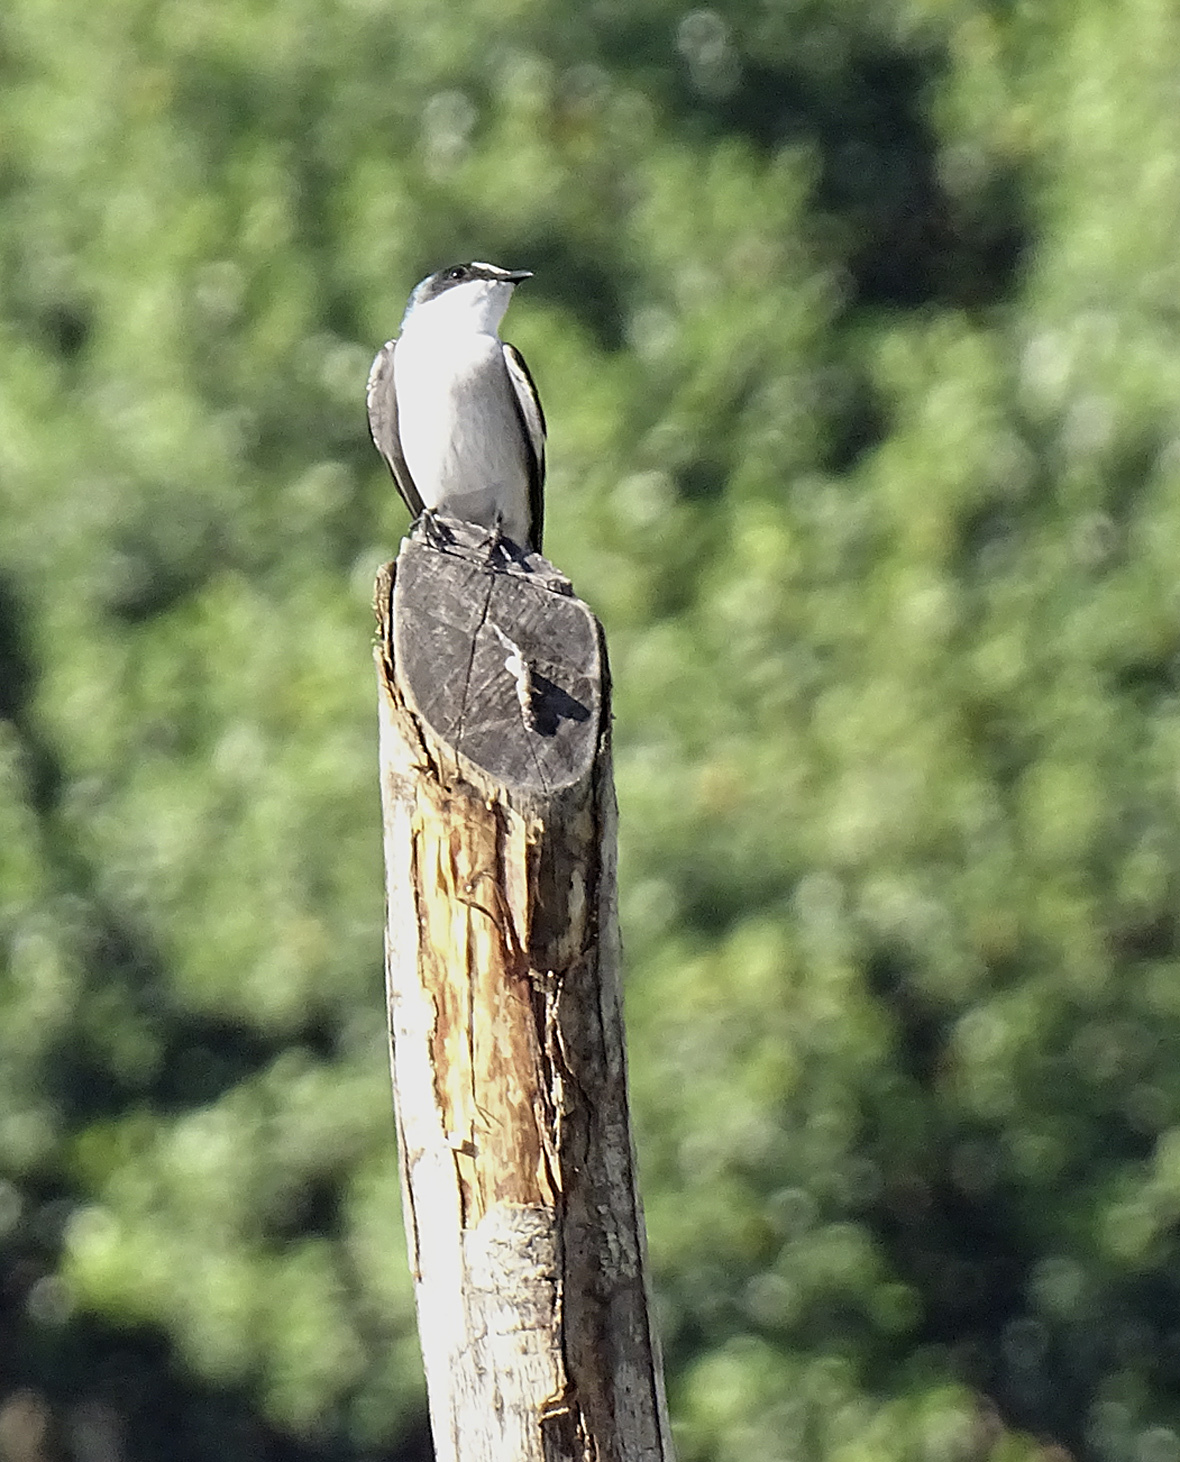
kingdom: Animalia
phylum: Chordata
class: Aves
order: Passeriformes
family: Hirundinidae
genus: Tachycineta
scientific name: Tachycineta albilinea
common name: Mangrove swallow
